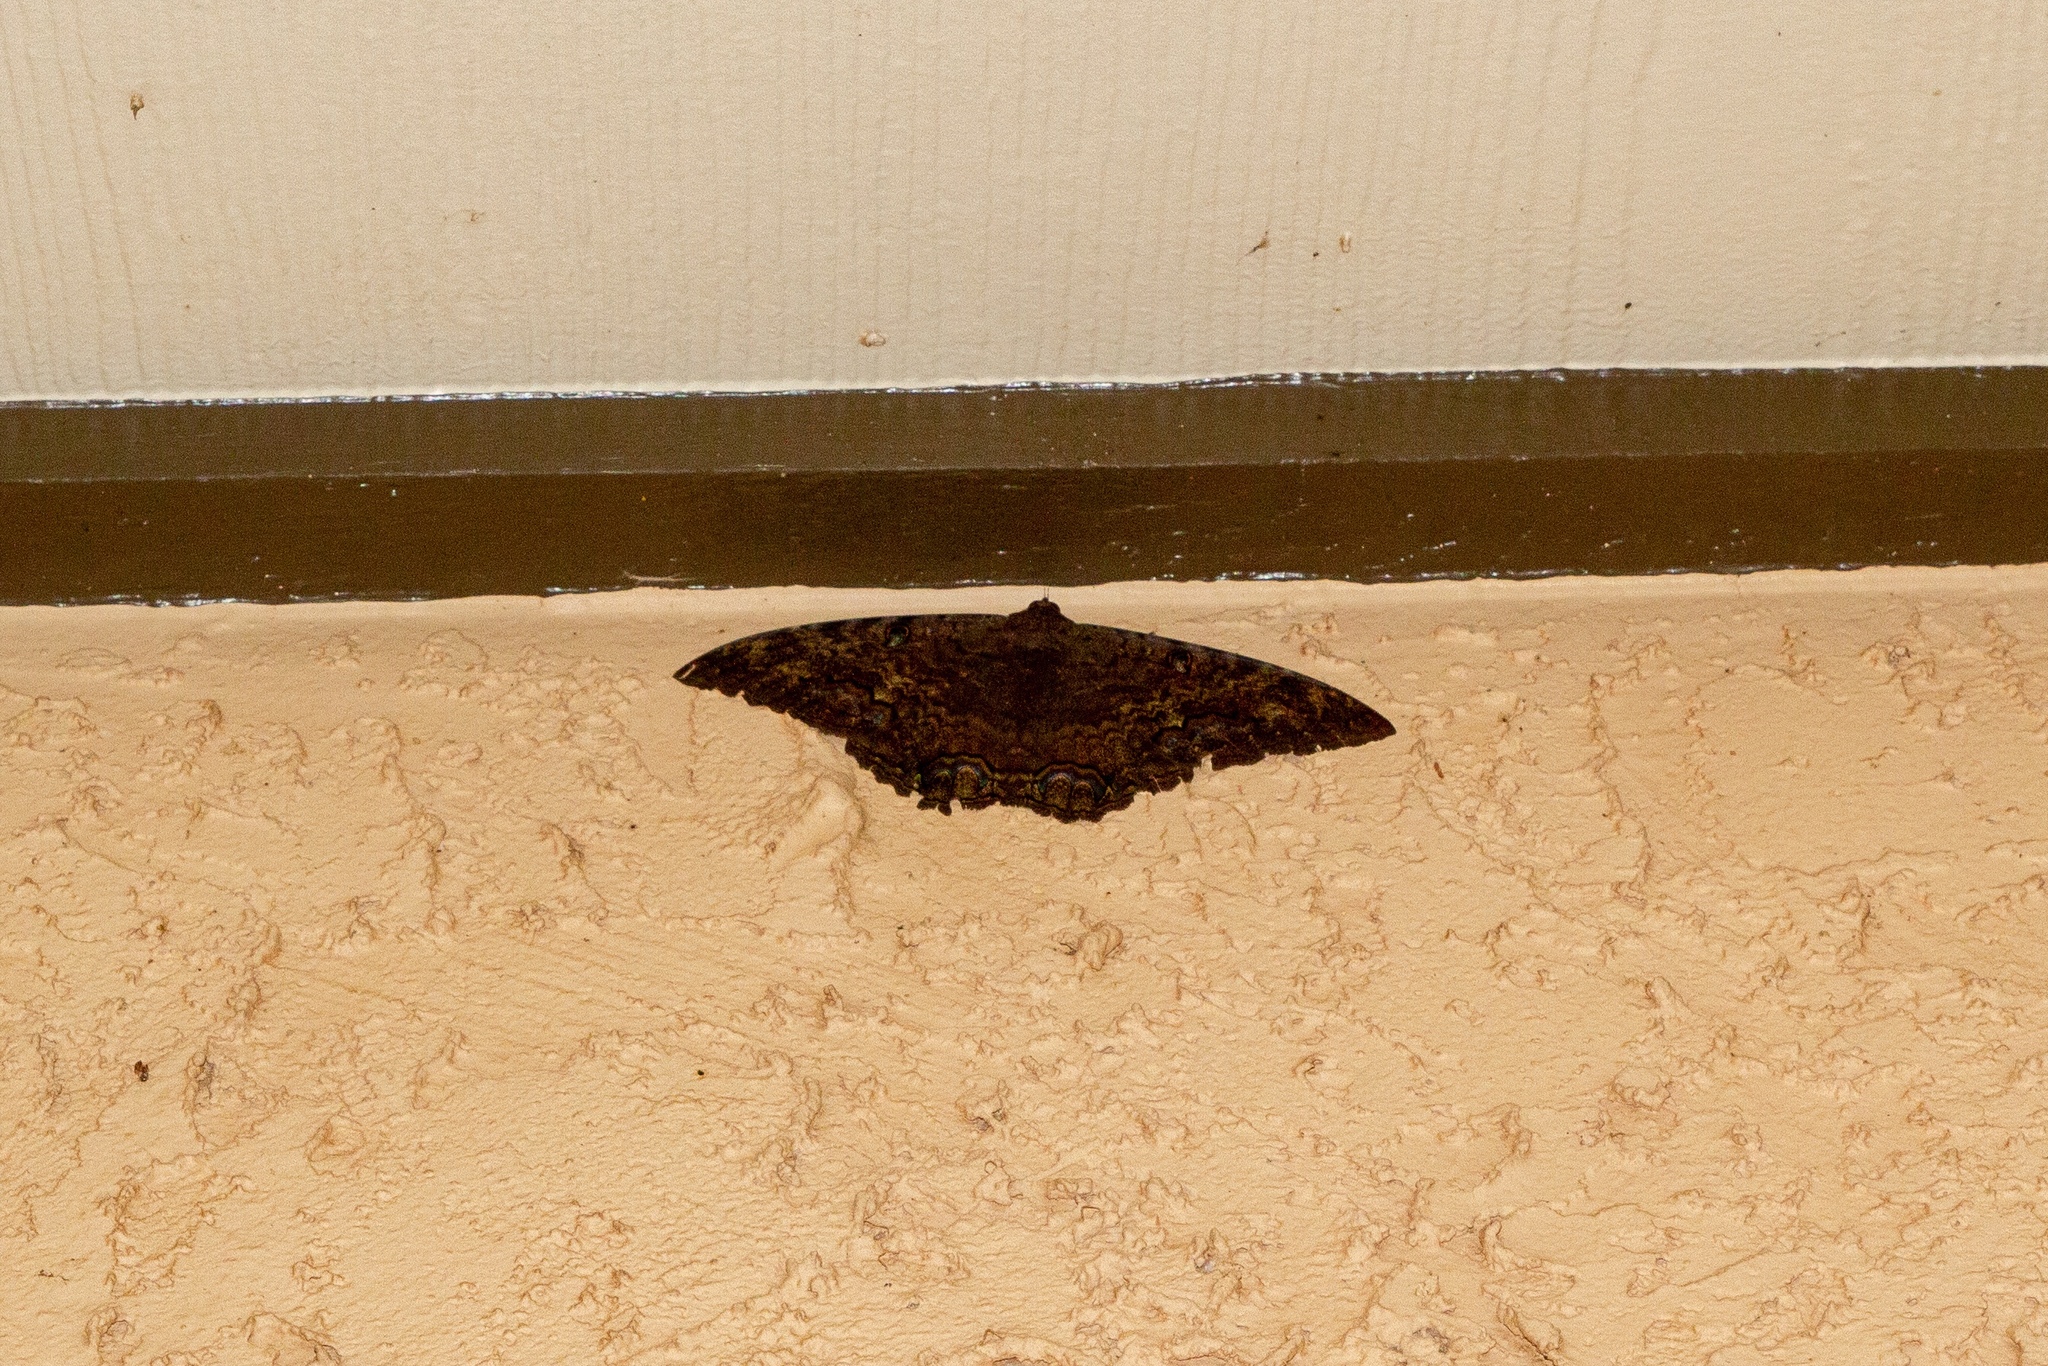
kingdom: Animalia
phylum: Arthropoda
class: Insecta
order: Lepidoptera
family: Erebidae
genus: Ascalapha
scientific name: Ascalapha odorata
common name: Black witch
